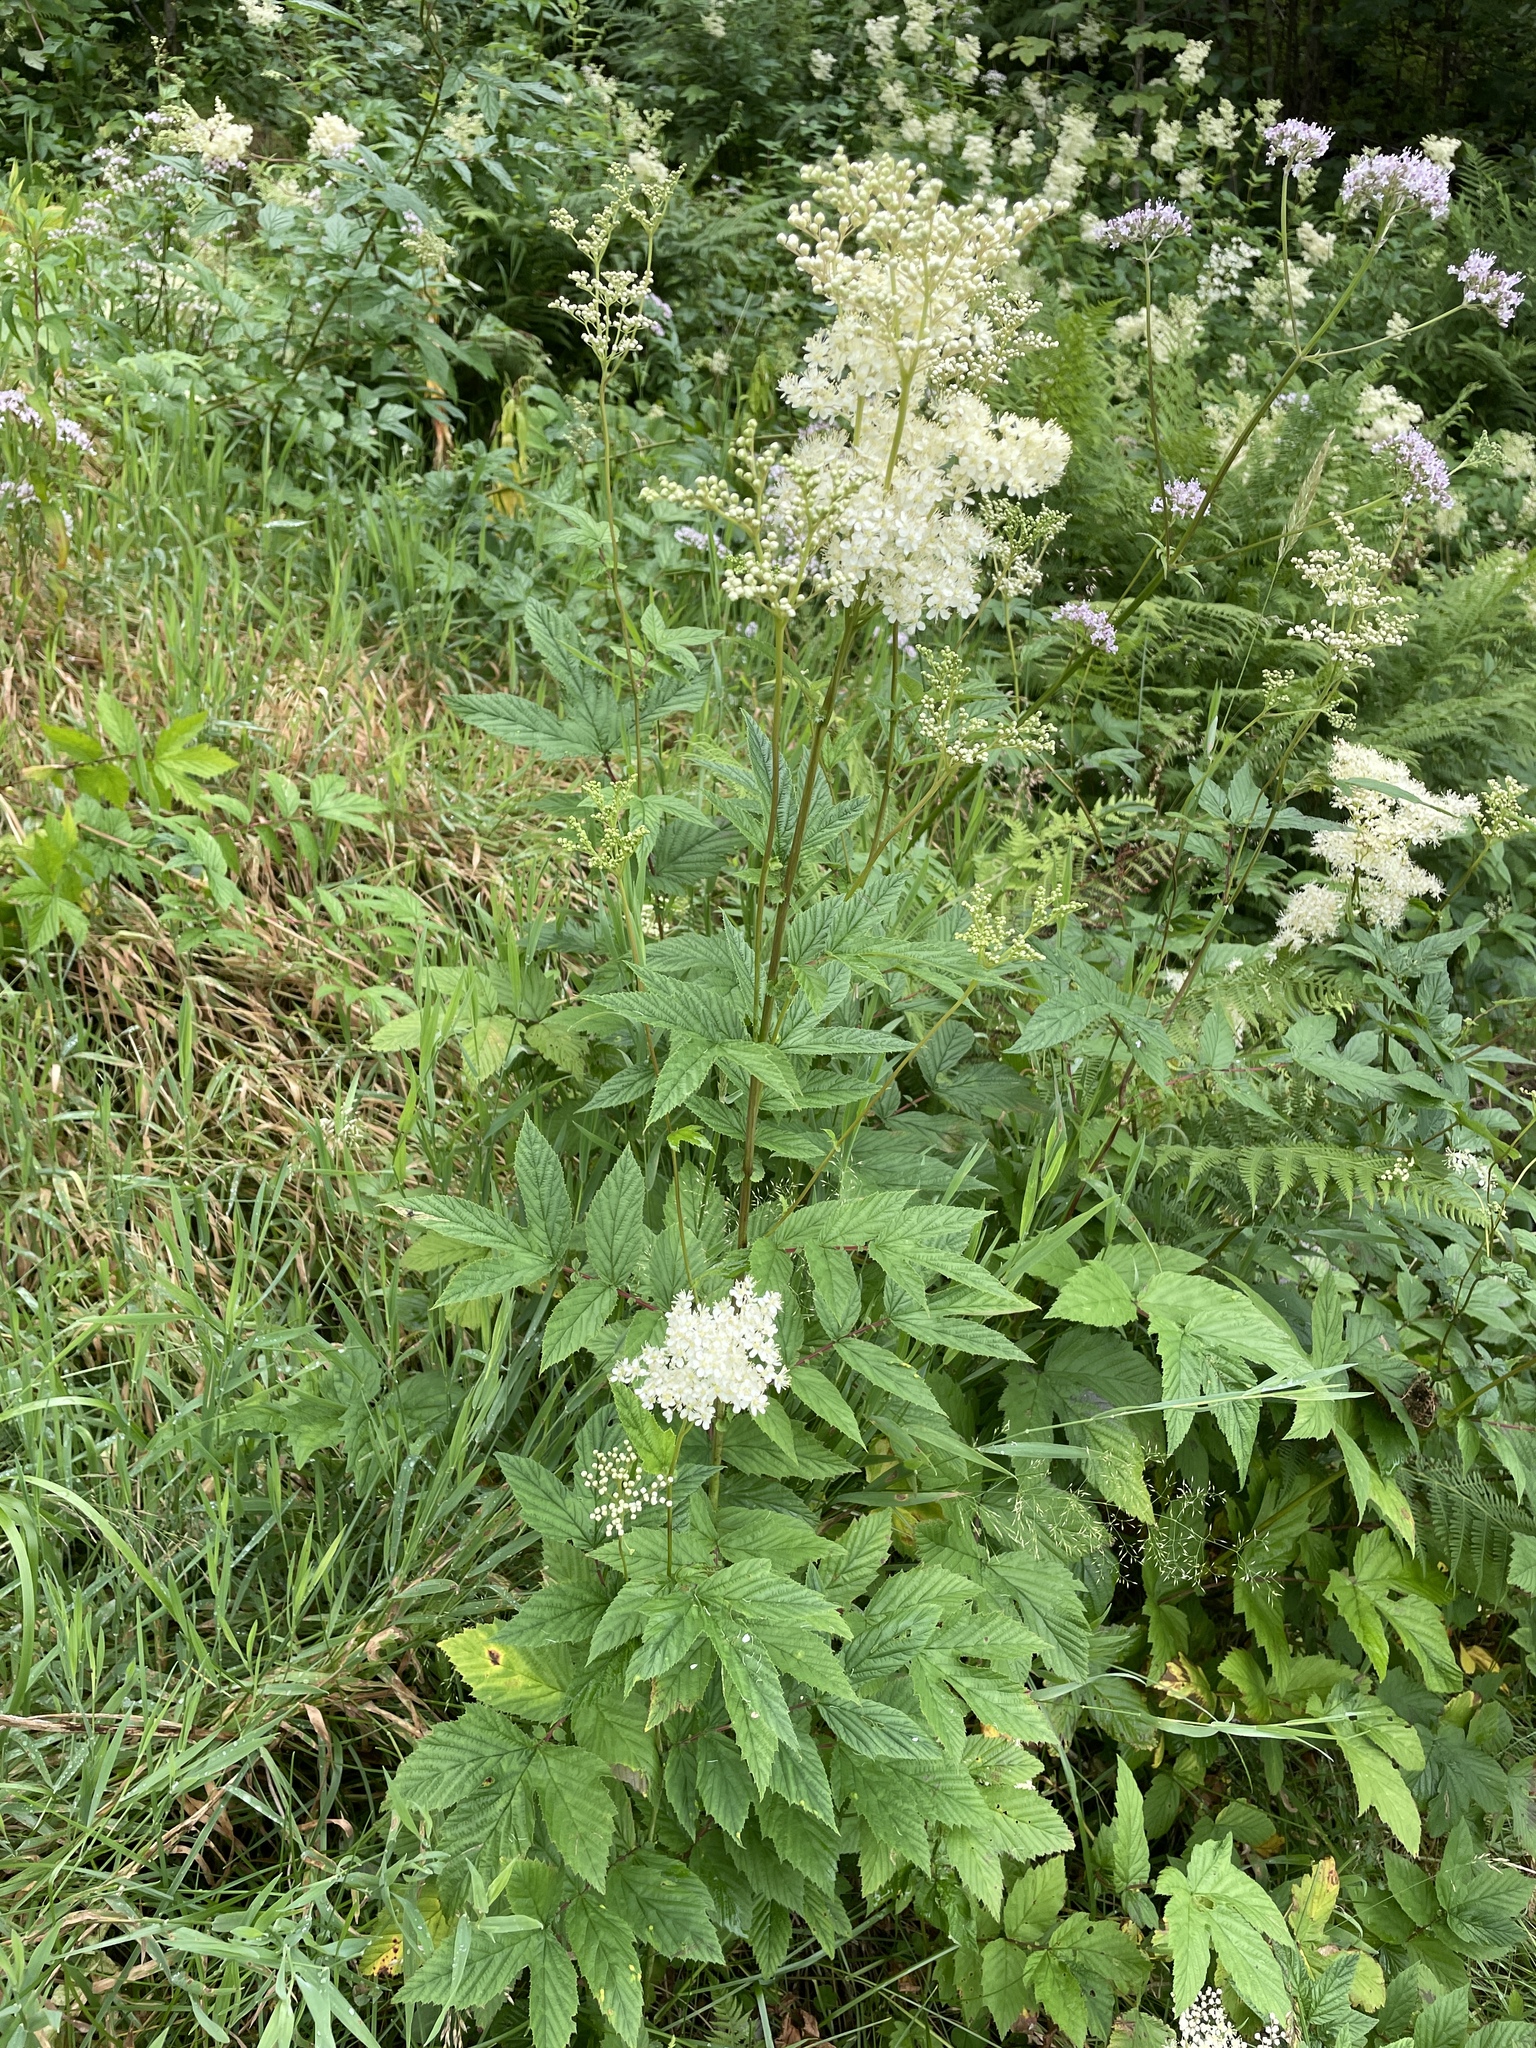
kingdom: Plantae
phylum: Tracheophyta
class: Magnoliopsida
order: Rosales
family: Rosaceae
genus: Filipendula
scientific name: Filipendula ulmaria
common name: Meadowsweet
